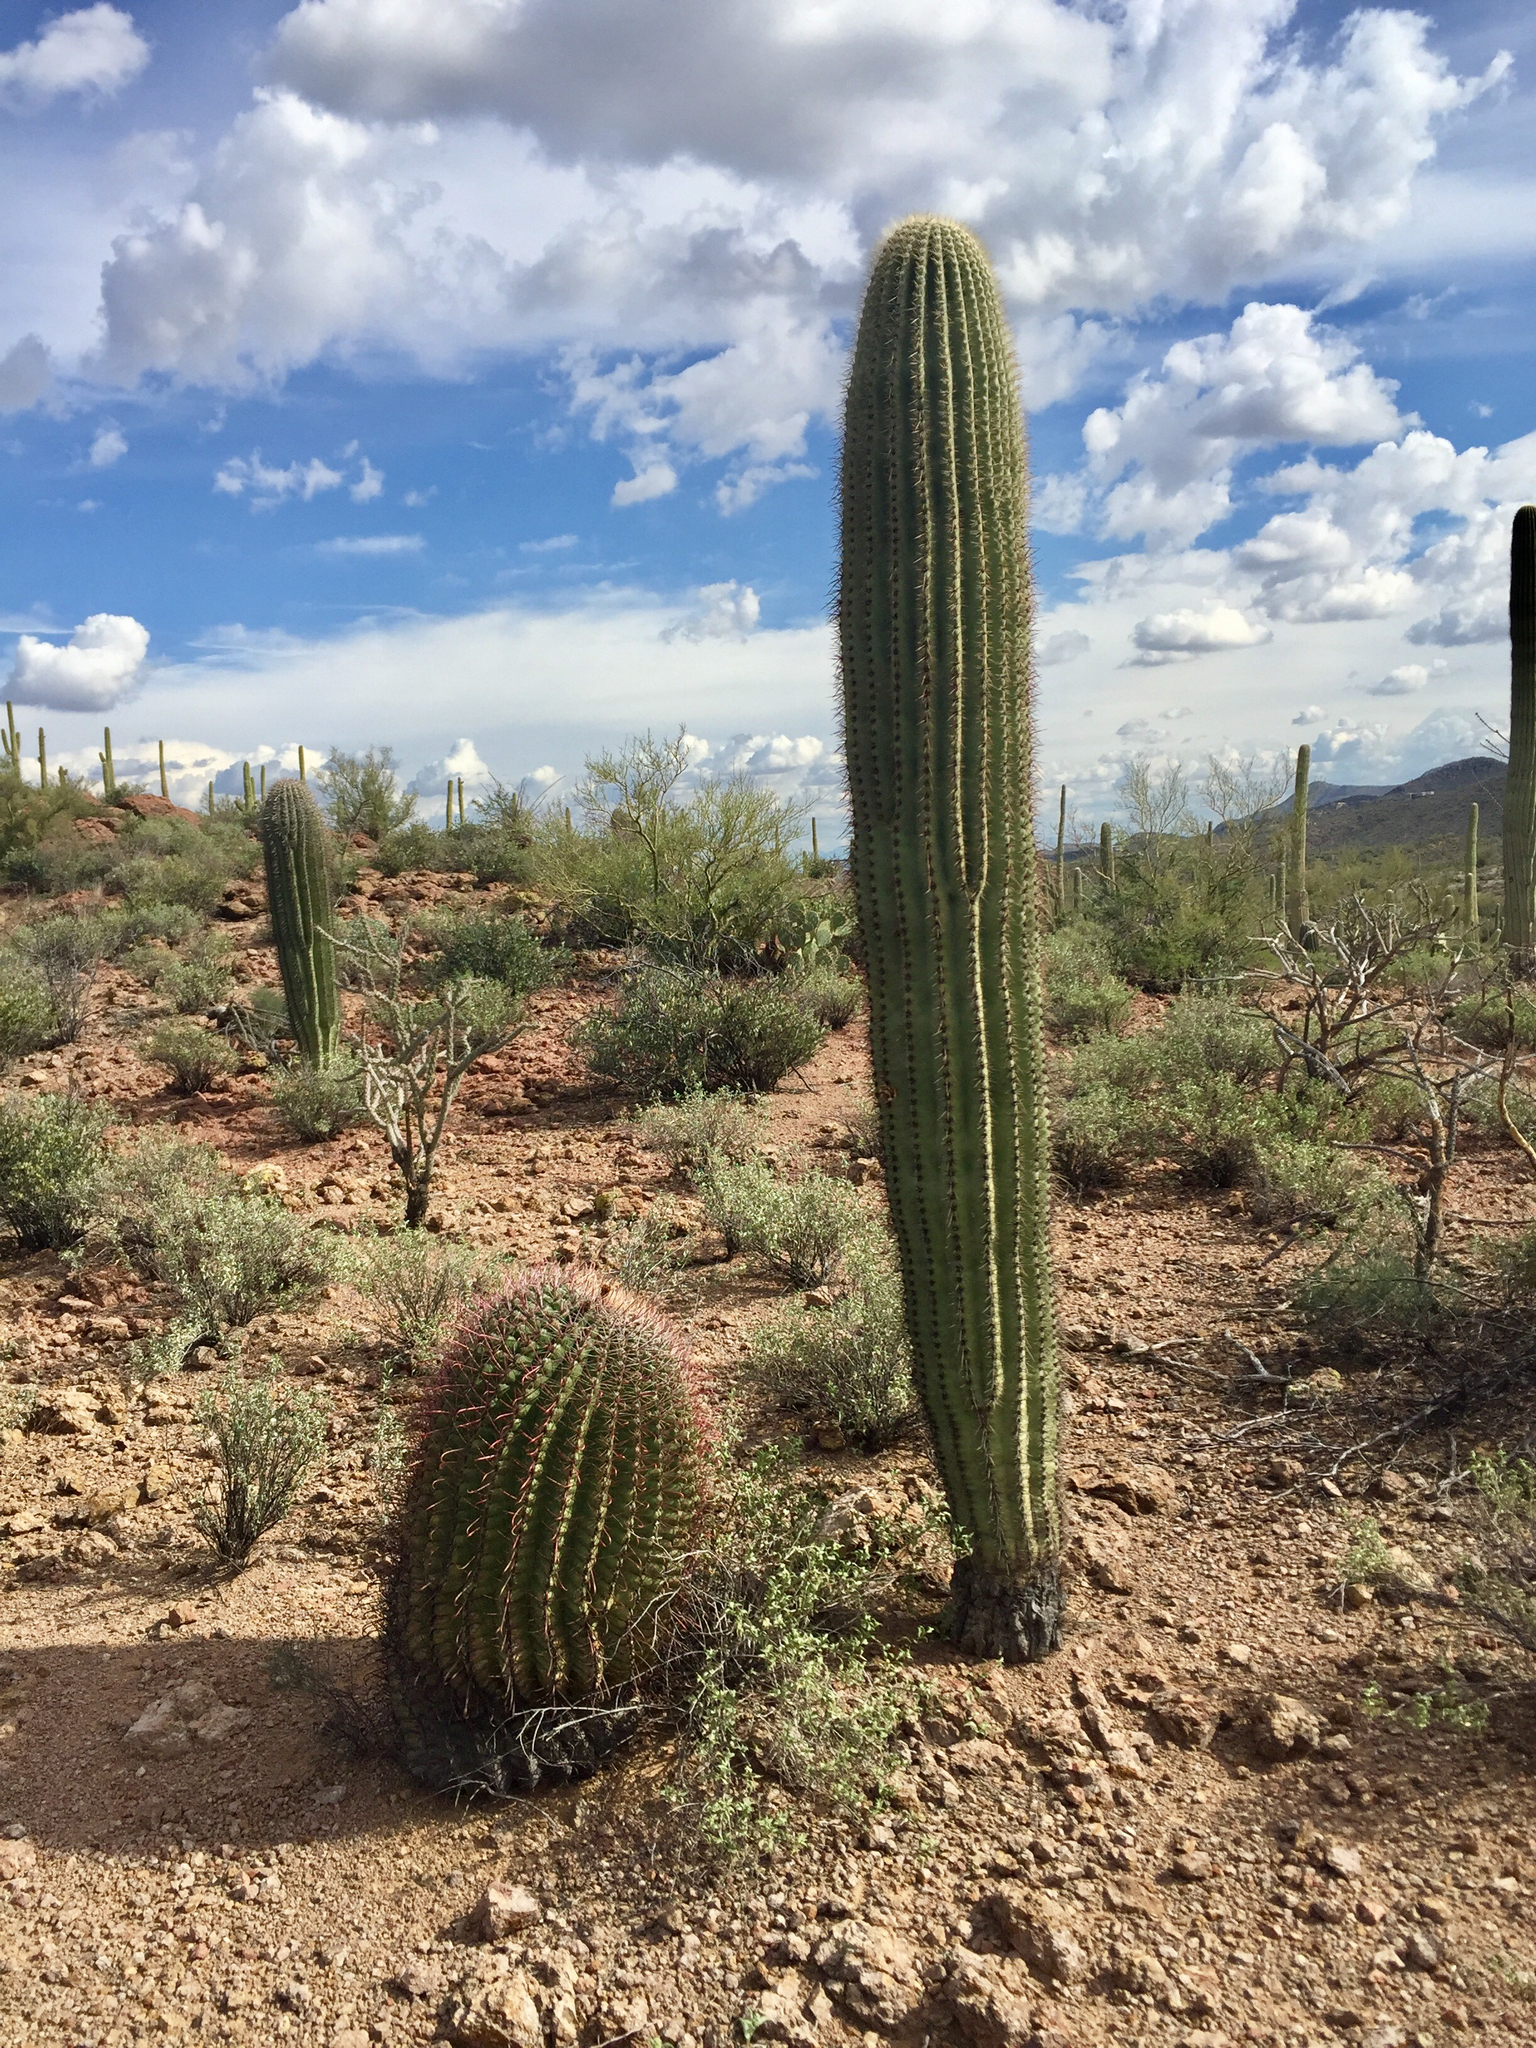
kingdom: Plantae
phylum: Tracheophyta
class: Magnoliopsida
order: Caryophyllales
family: Cactaceae
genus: Ferocactus
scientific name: Ferocactus wislizeni
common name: Candy barrel cactus
